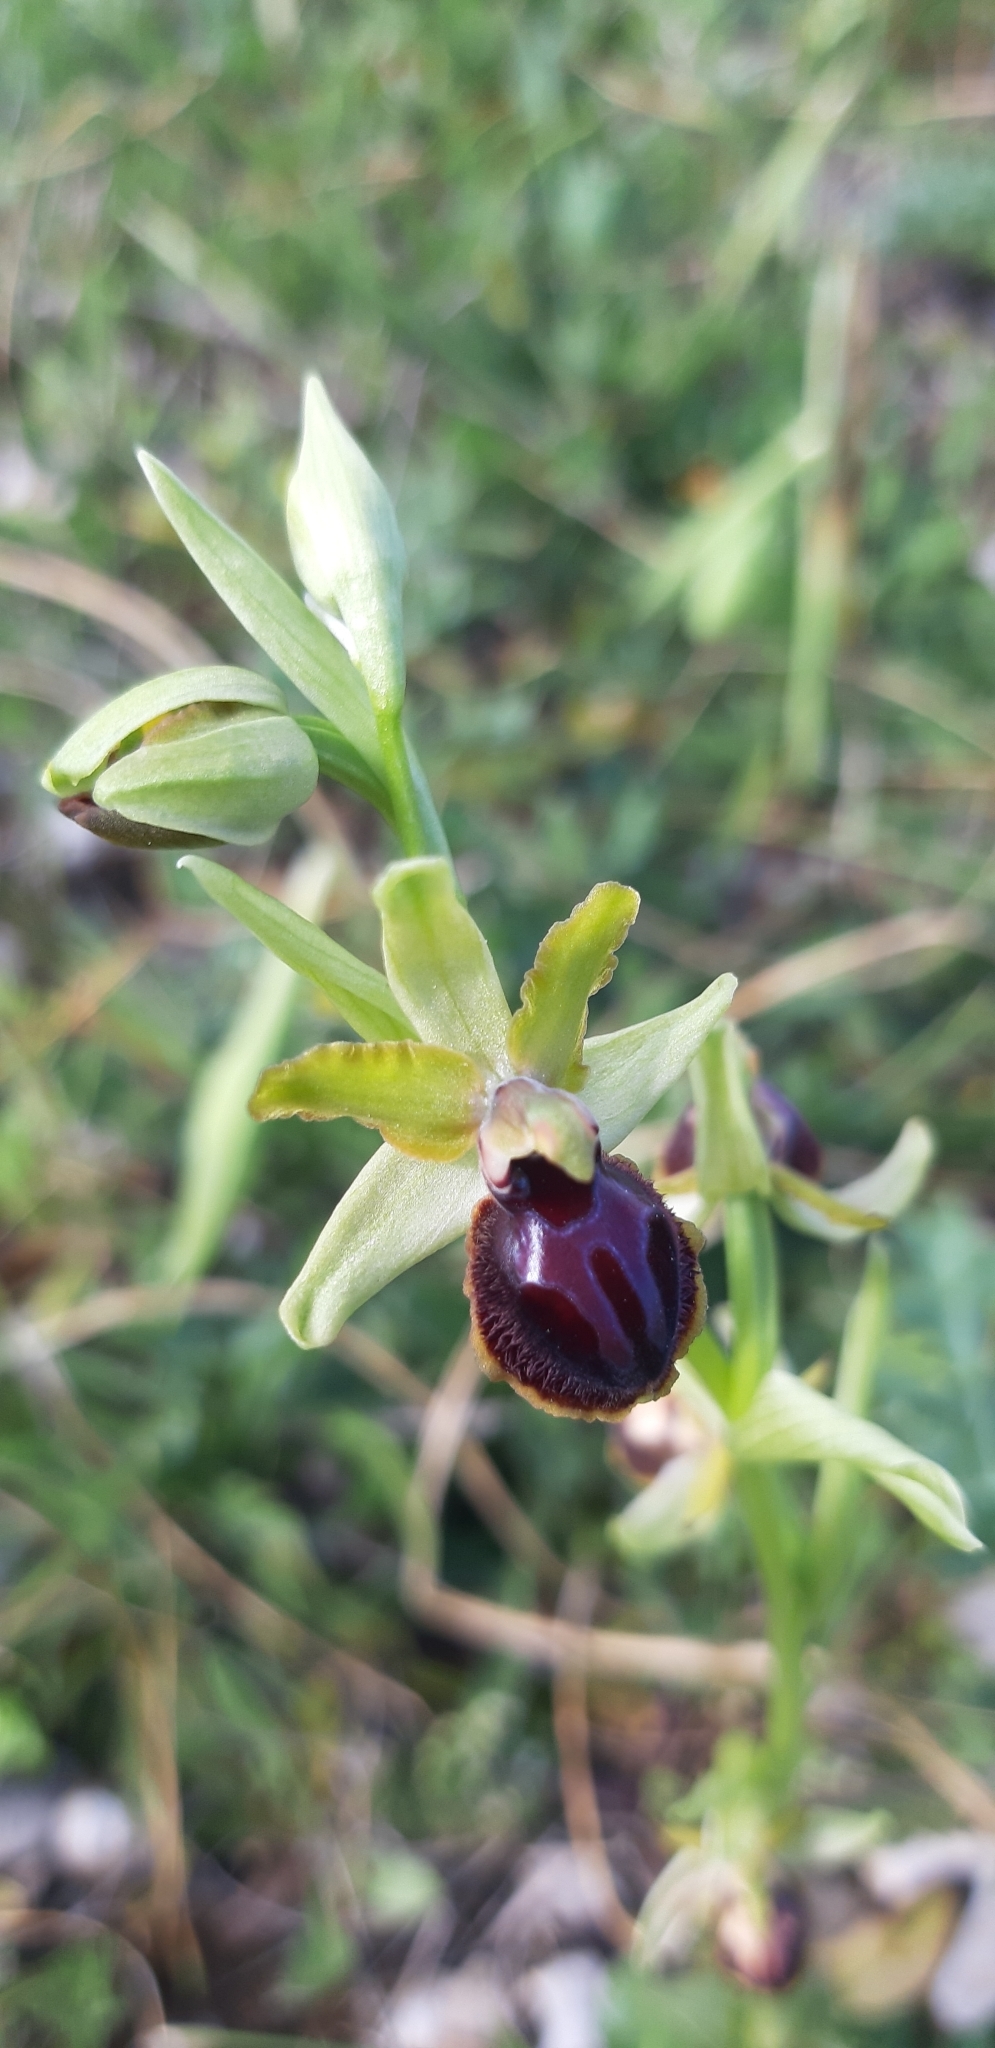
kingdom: Plantae
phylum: Tracheophyta
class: Liliopsida
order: Asparagales
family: Orchidaceae
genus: Ophrys
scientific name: Ophrys sphegodes
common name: Early spider-orchid
